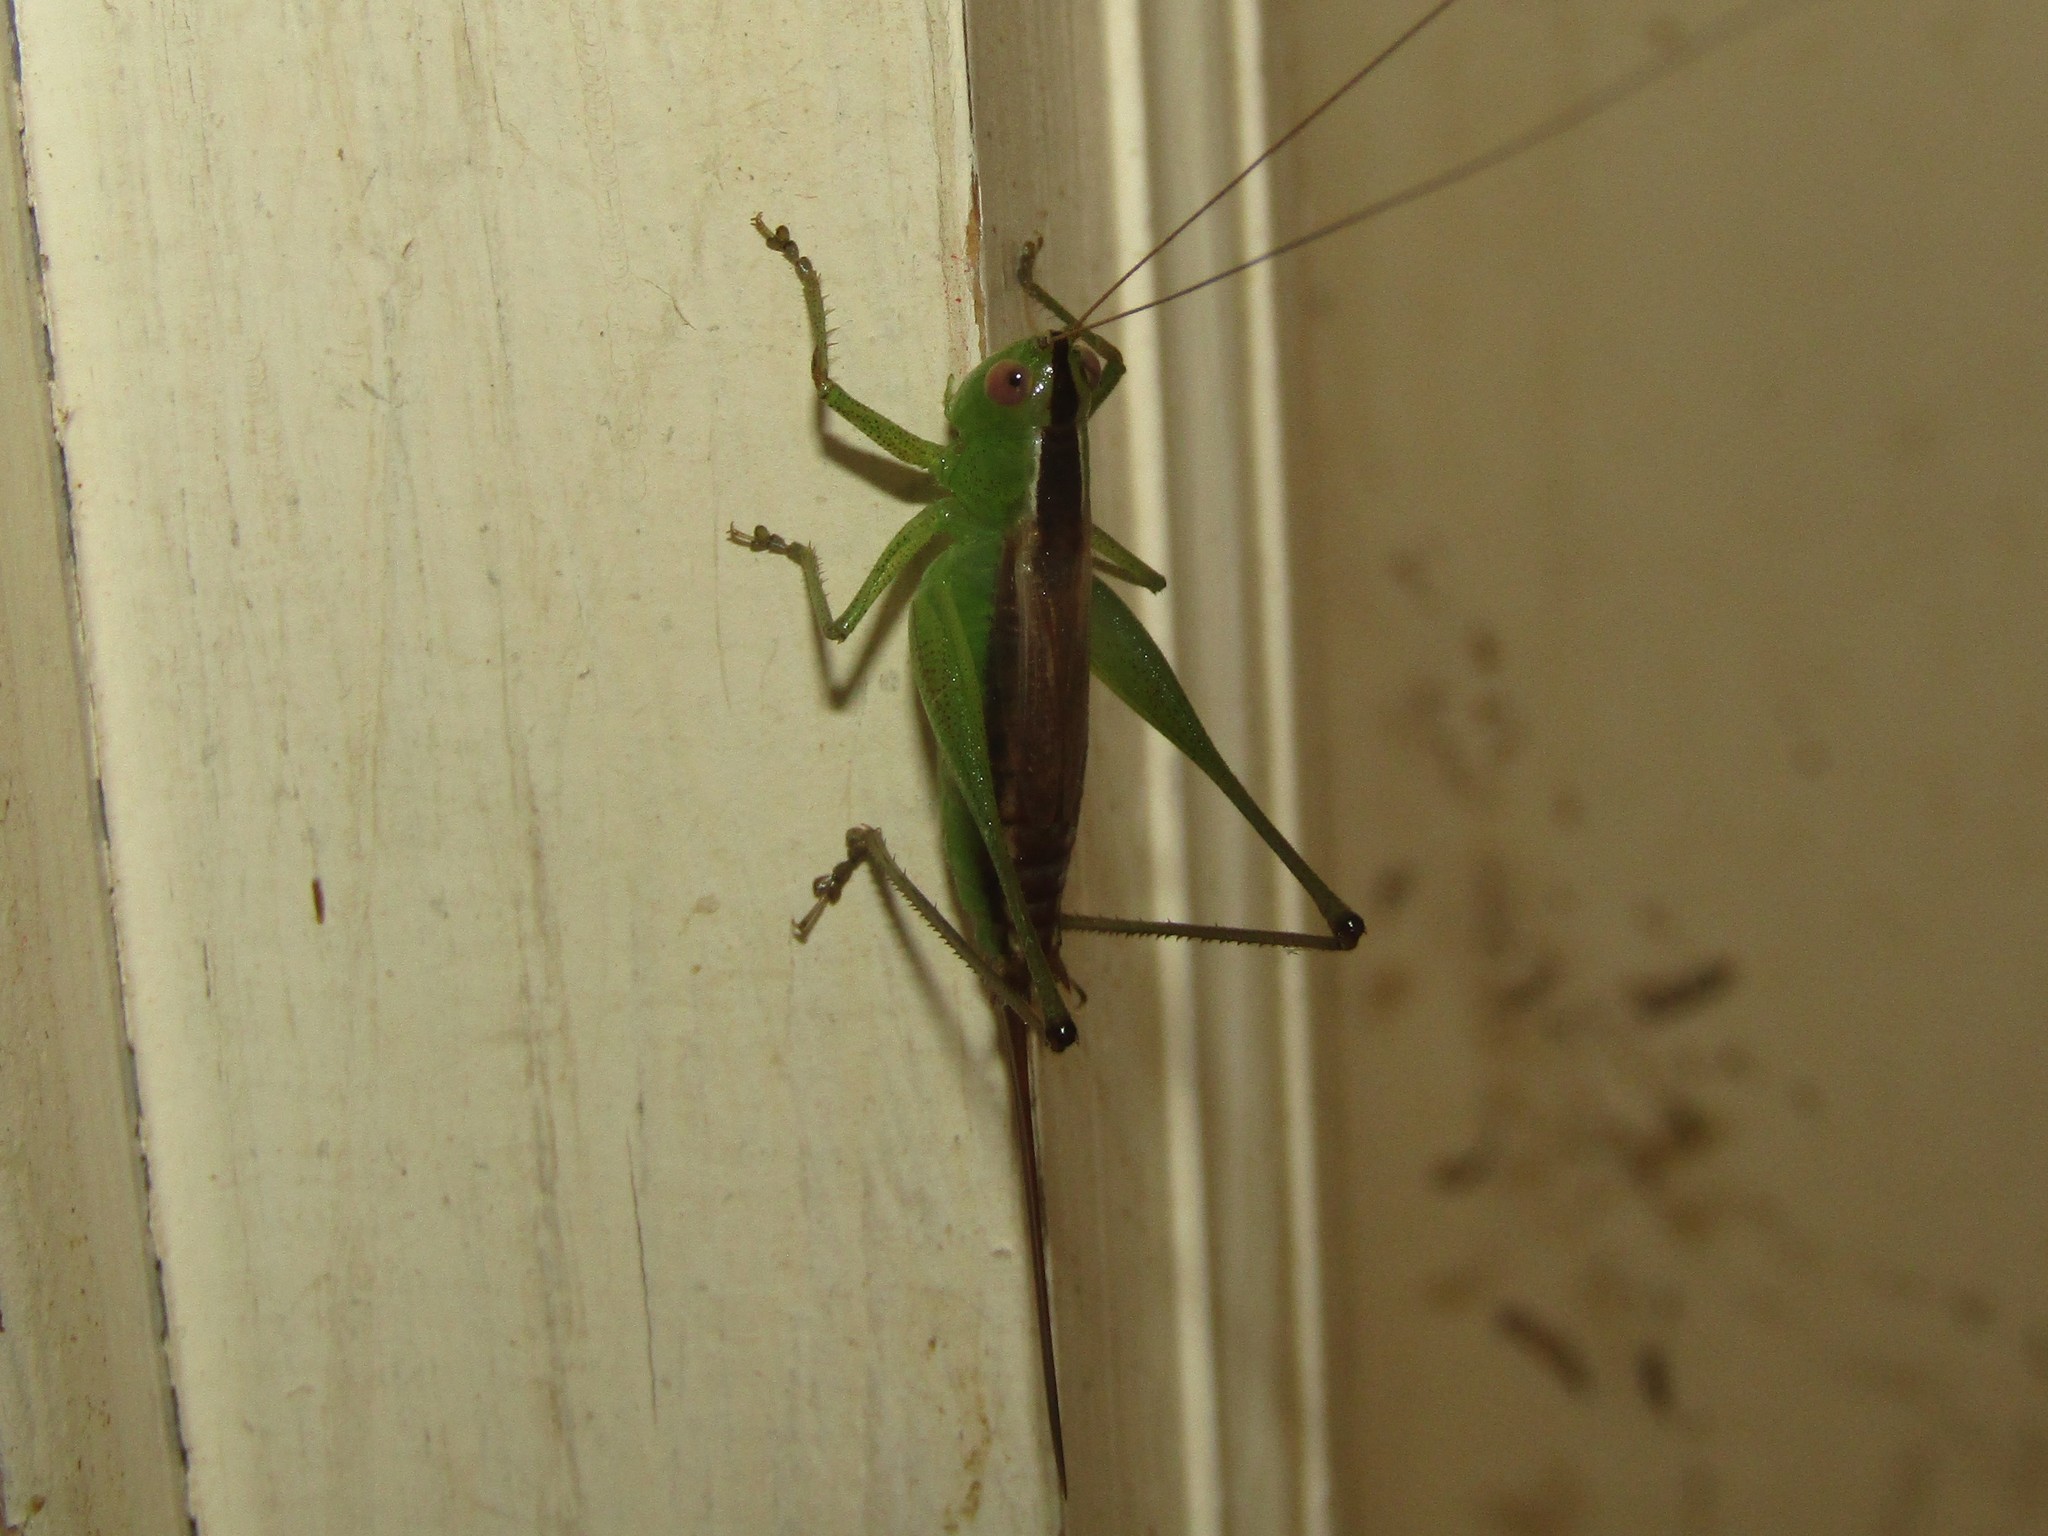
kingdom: Animalia
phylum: Arthropoda
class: Insecta
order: Orthoptera
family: Tettigoniidae
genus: Conocephalus
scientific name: Conocephalus brevipennis
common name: Short-winged meadow katydid
